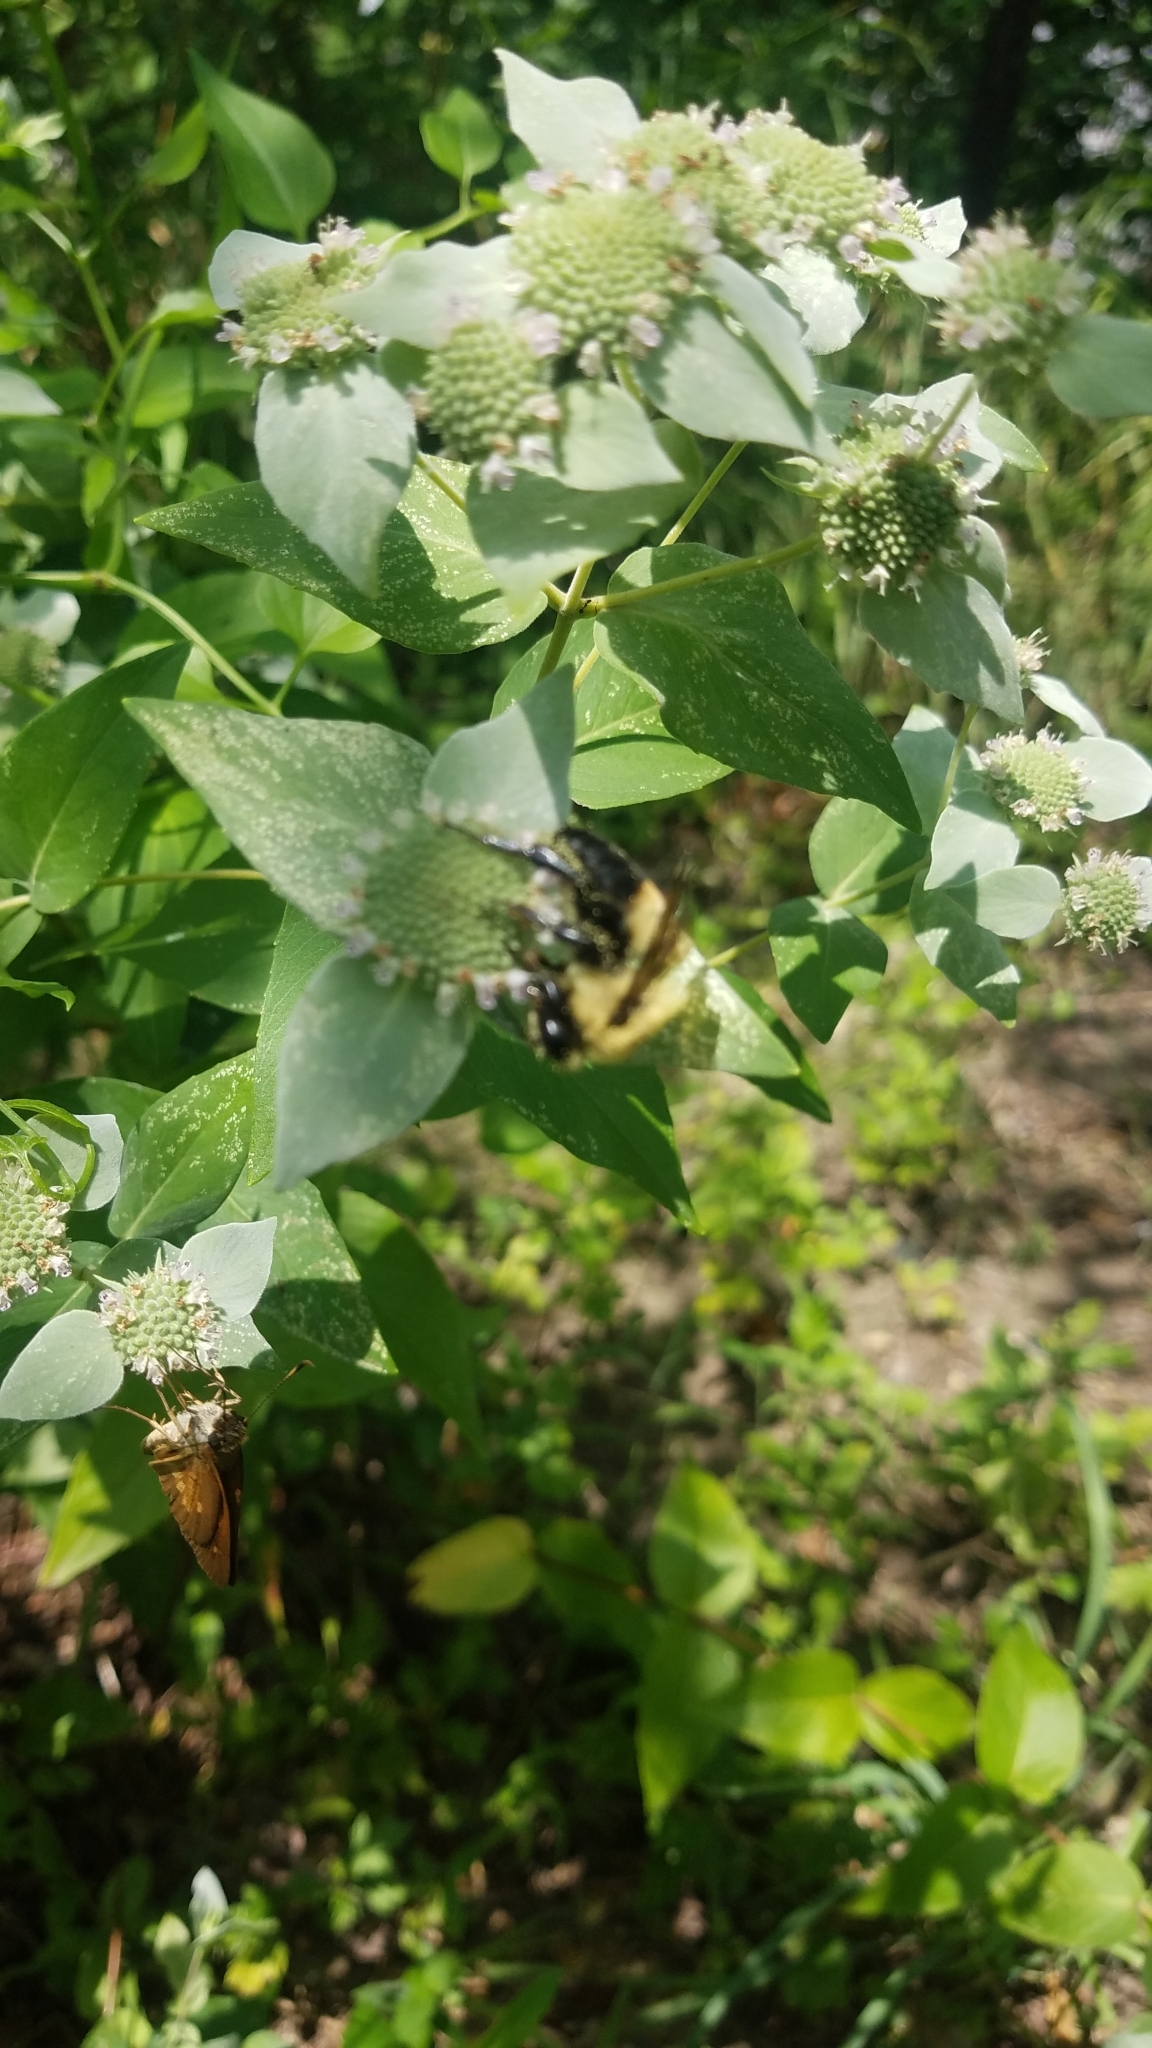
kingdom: Animalia
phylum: Arthropoda
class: Insecta
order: Hymenoptera
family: Apidae
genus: Bombus
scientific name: Bombus griseocollis
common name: Brown-belted bumble bee
